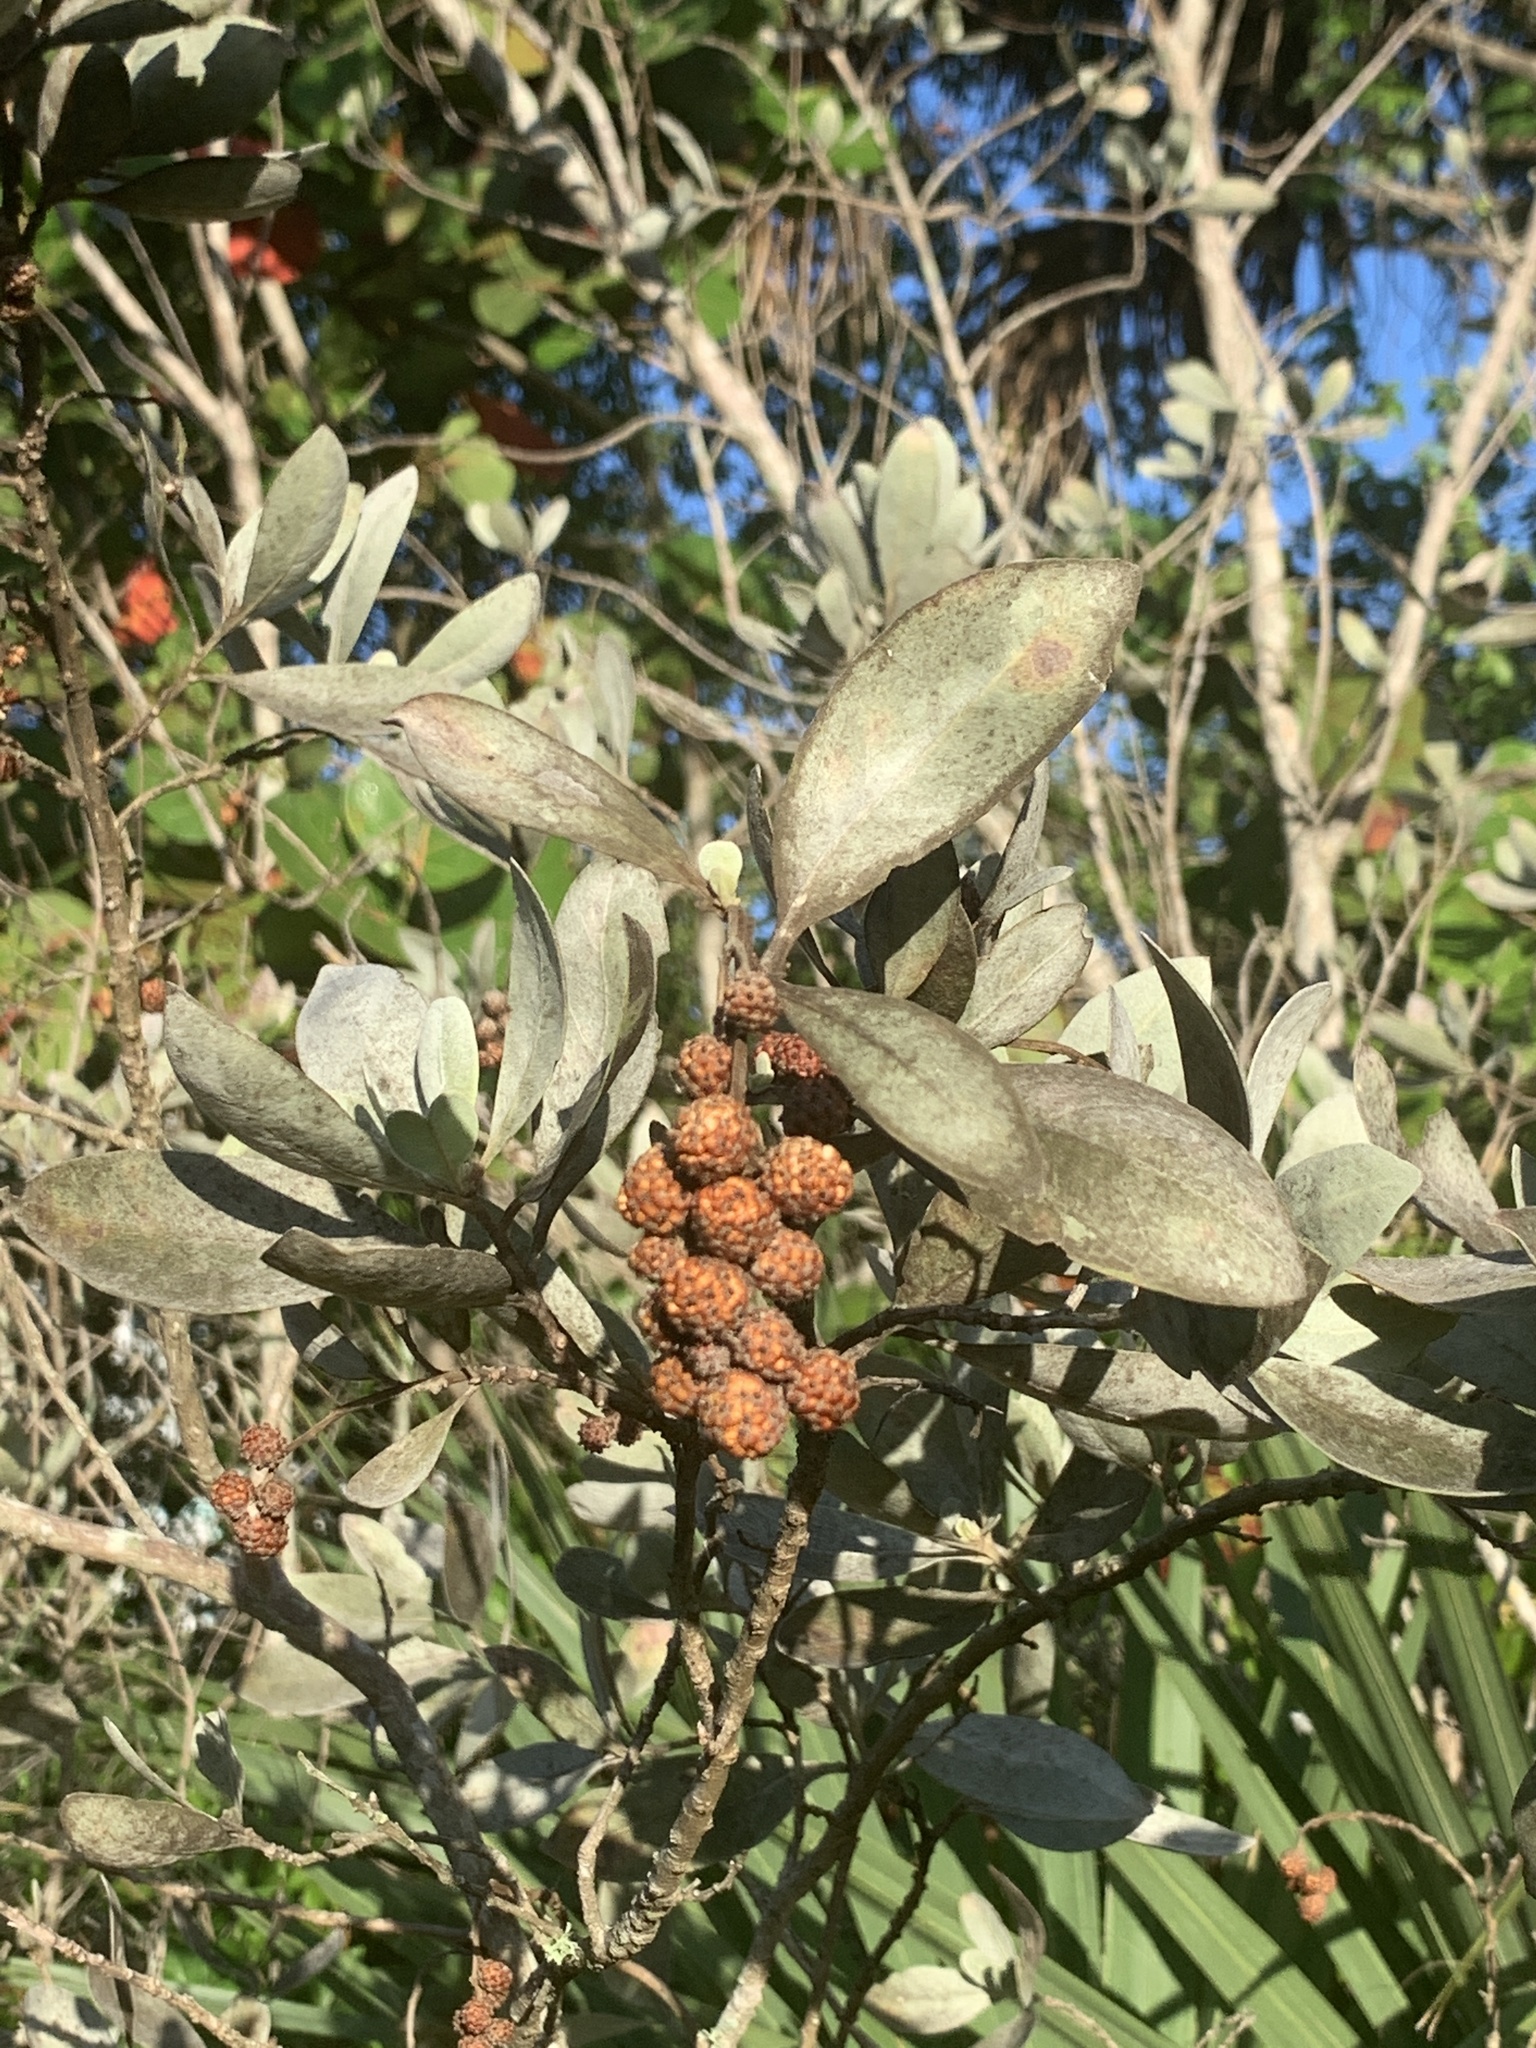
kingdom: Plantae
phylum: Tracheophyta
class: Magnoliopsida
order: Myrtales
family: Combretaceae
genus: Conocarpus
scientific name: Conocarpus erectus
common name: Button mangrove
